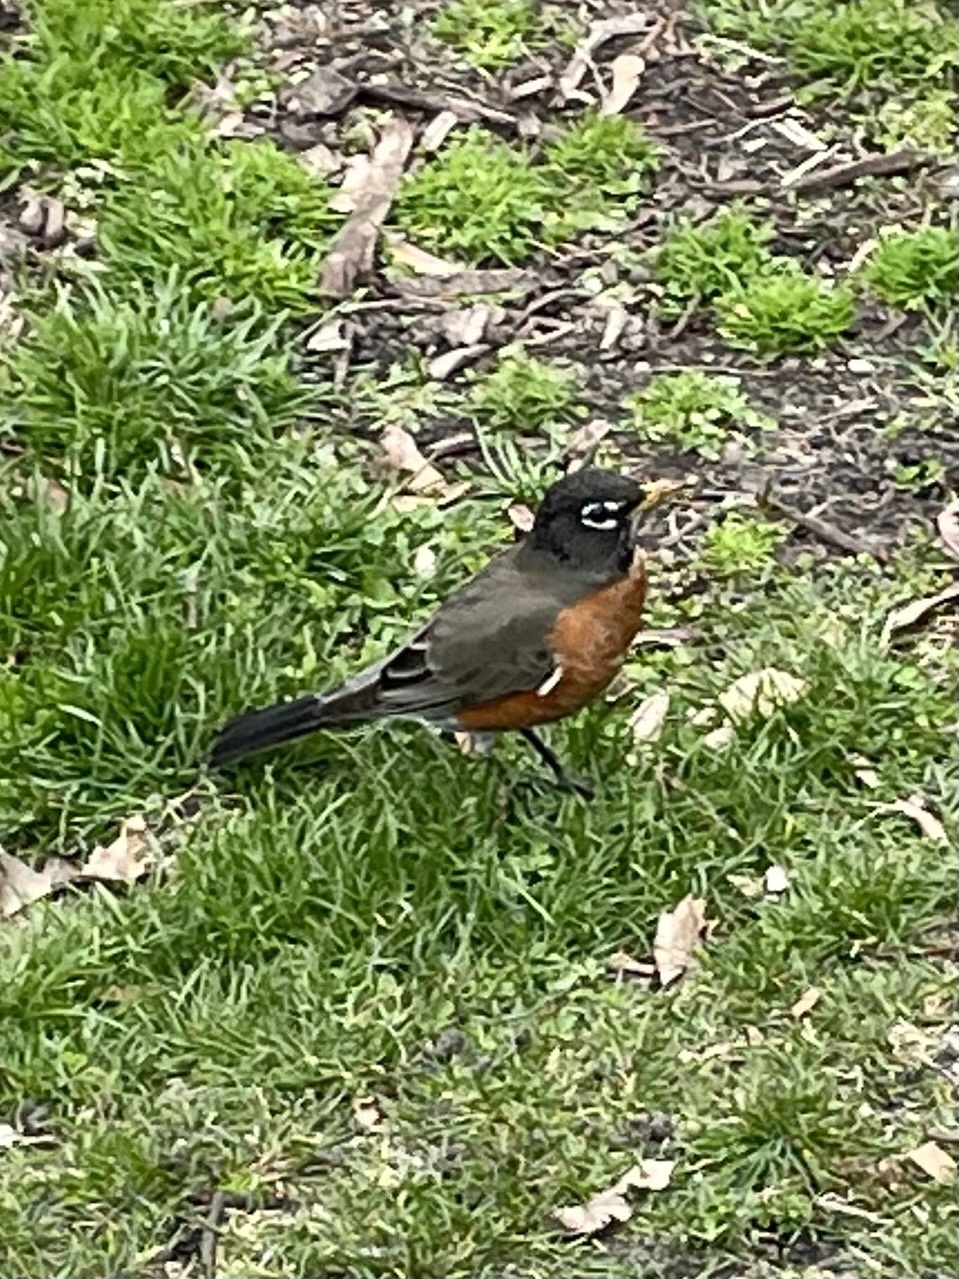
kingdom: Animalia
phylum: Chordata
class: Aves
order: Passeriformes
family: Turdidae
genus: Turdus
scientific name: Turdus migratorius
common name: American robin
